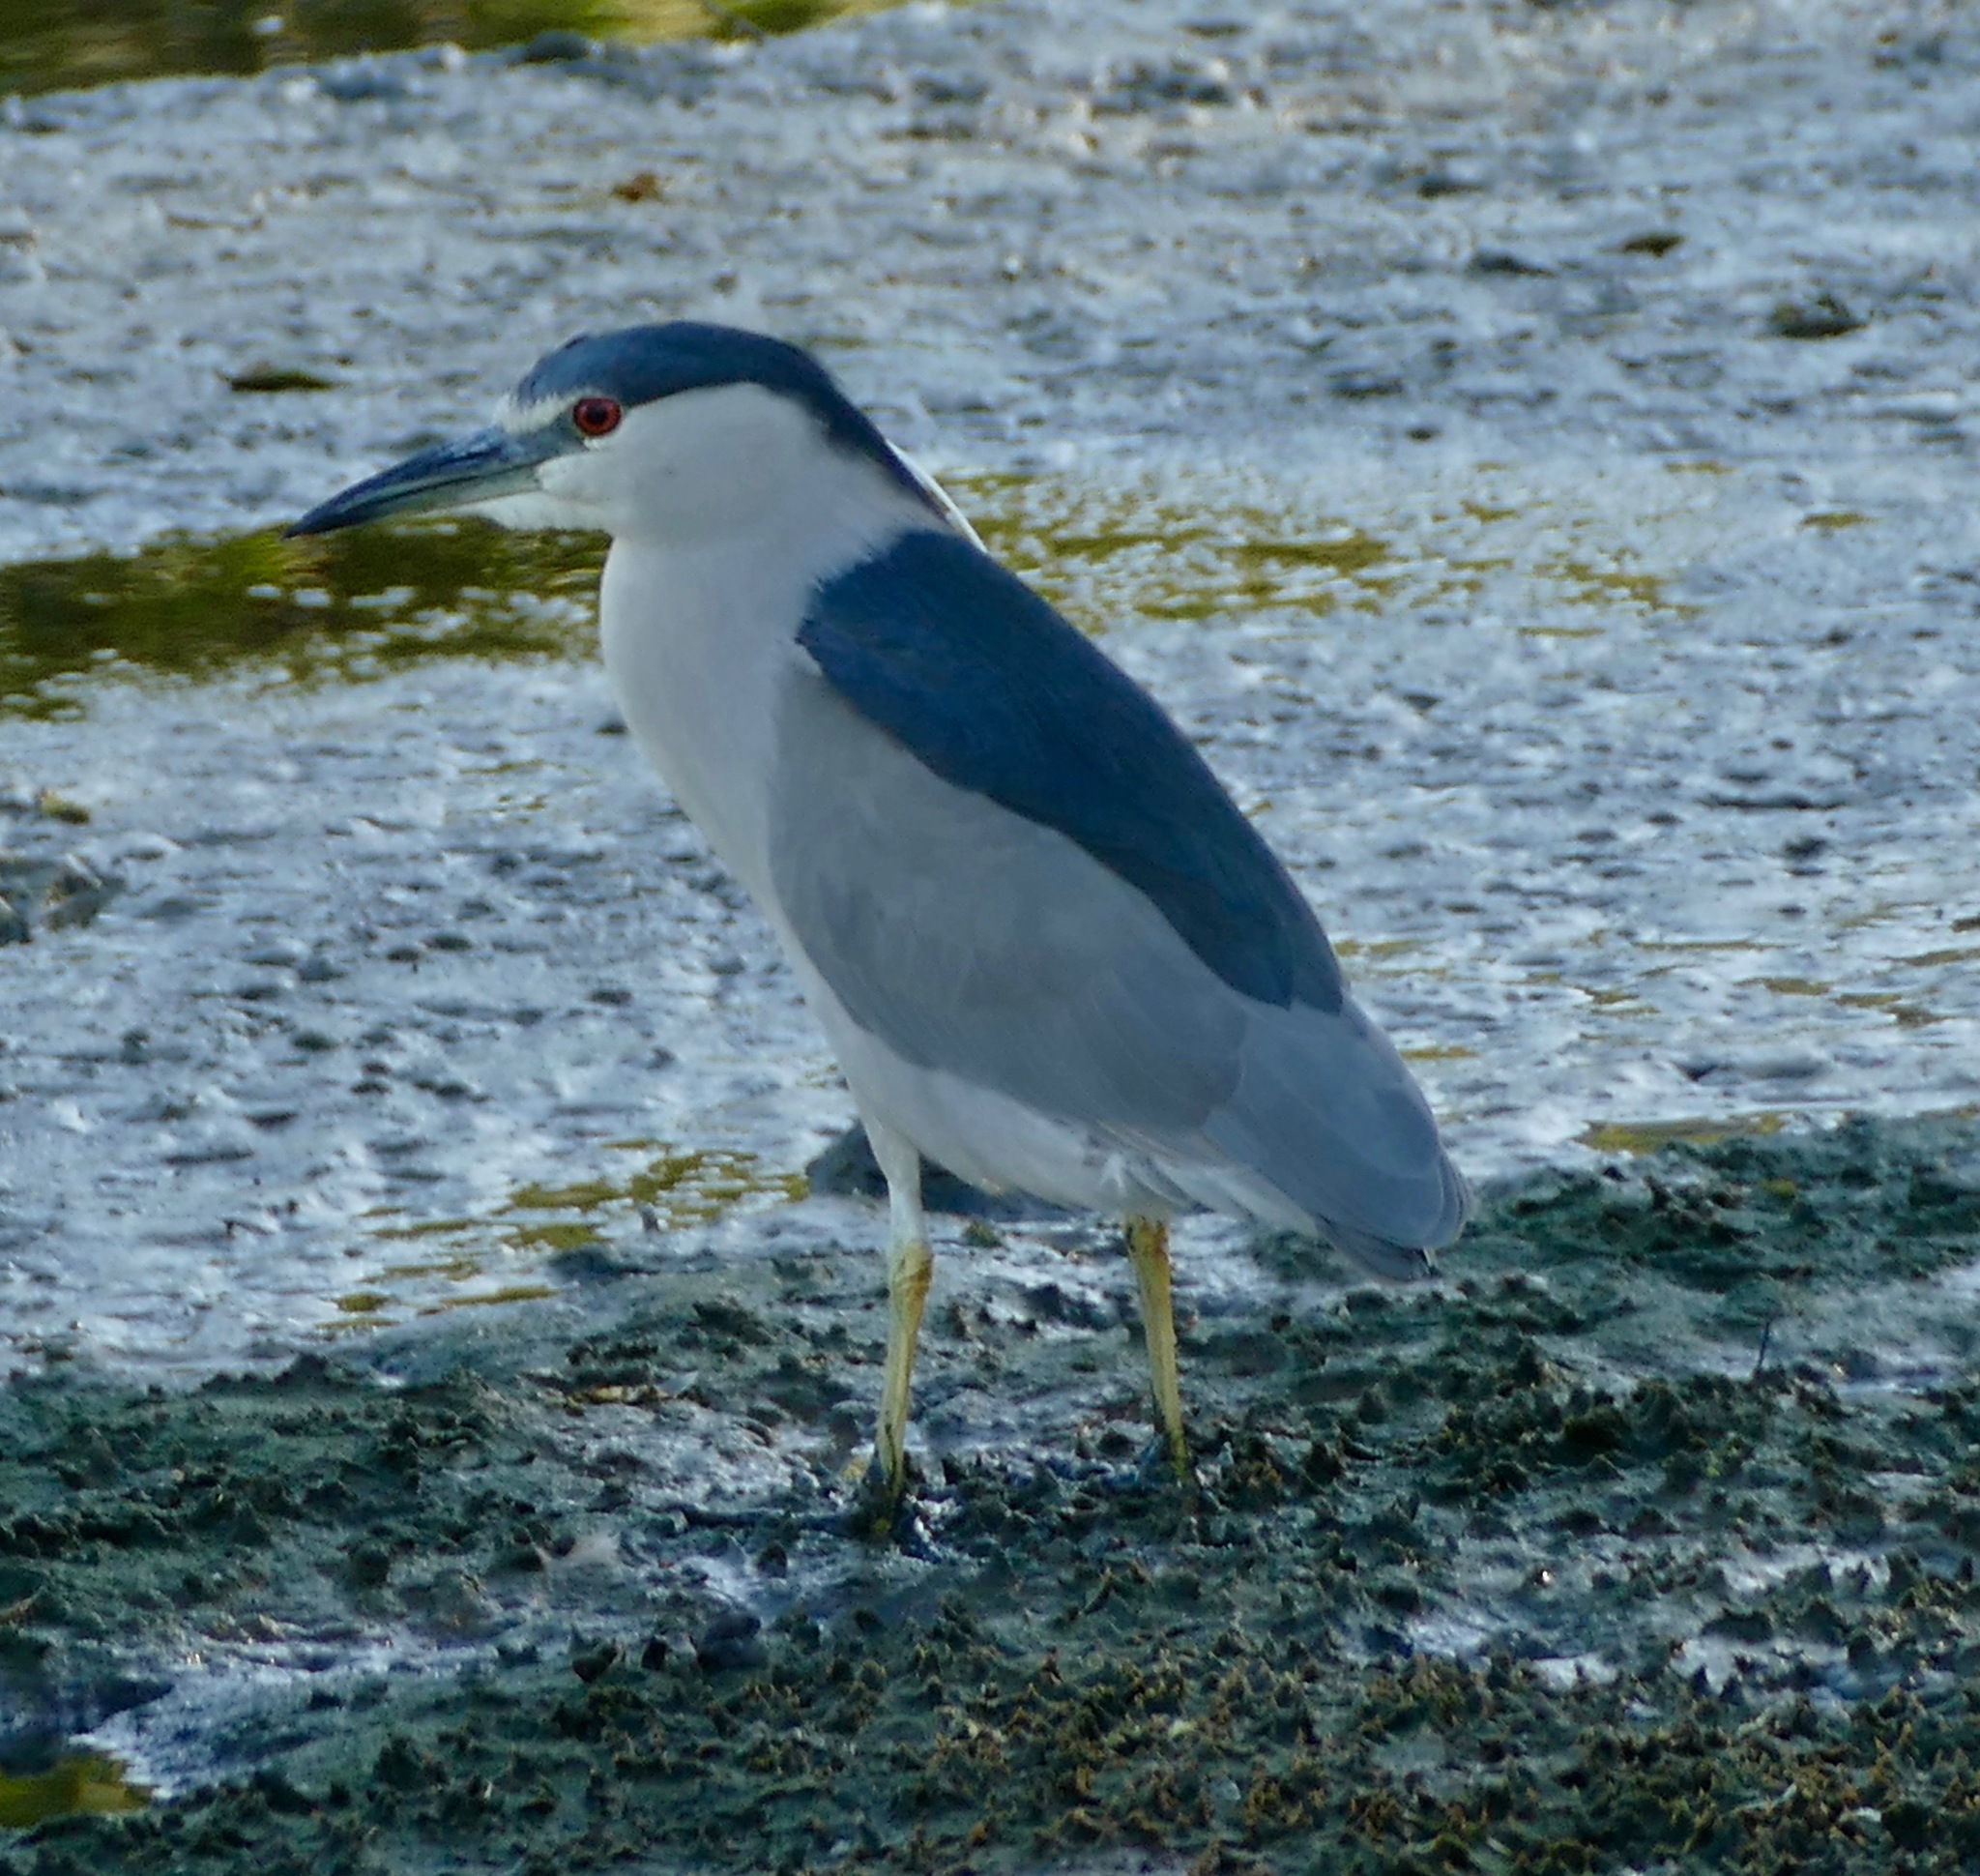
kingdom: Animalia
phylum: Chordata
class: Aves
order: Pelecaniformes
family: Ardeidae
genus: Nycticorax
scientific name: Nycticorax nycticorax
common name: Black-crowned night heron
